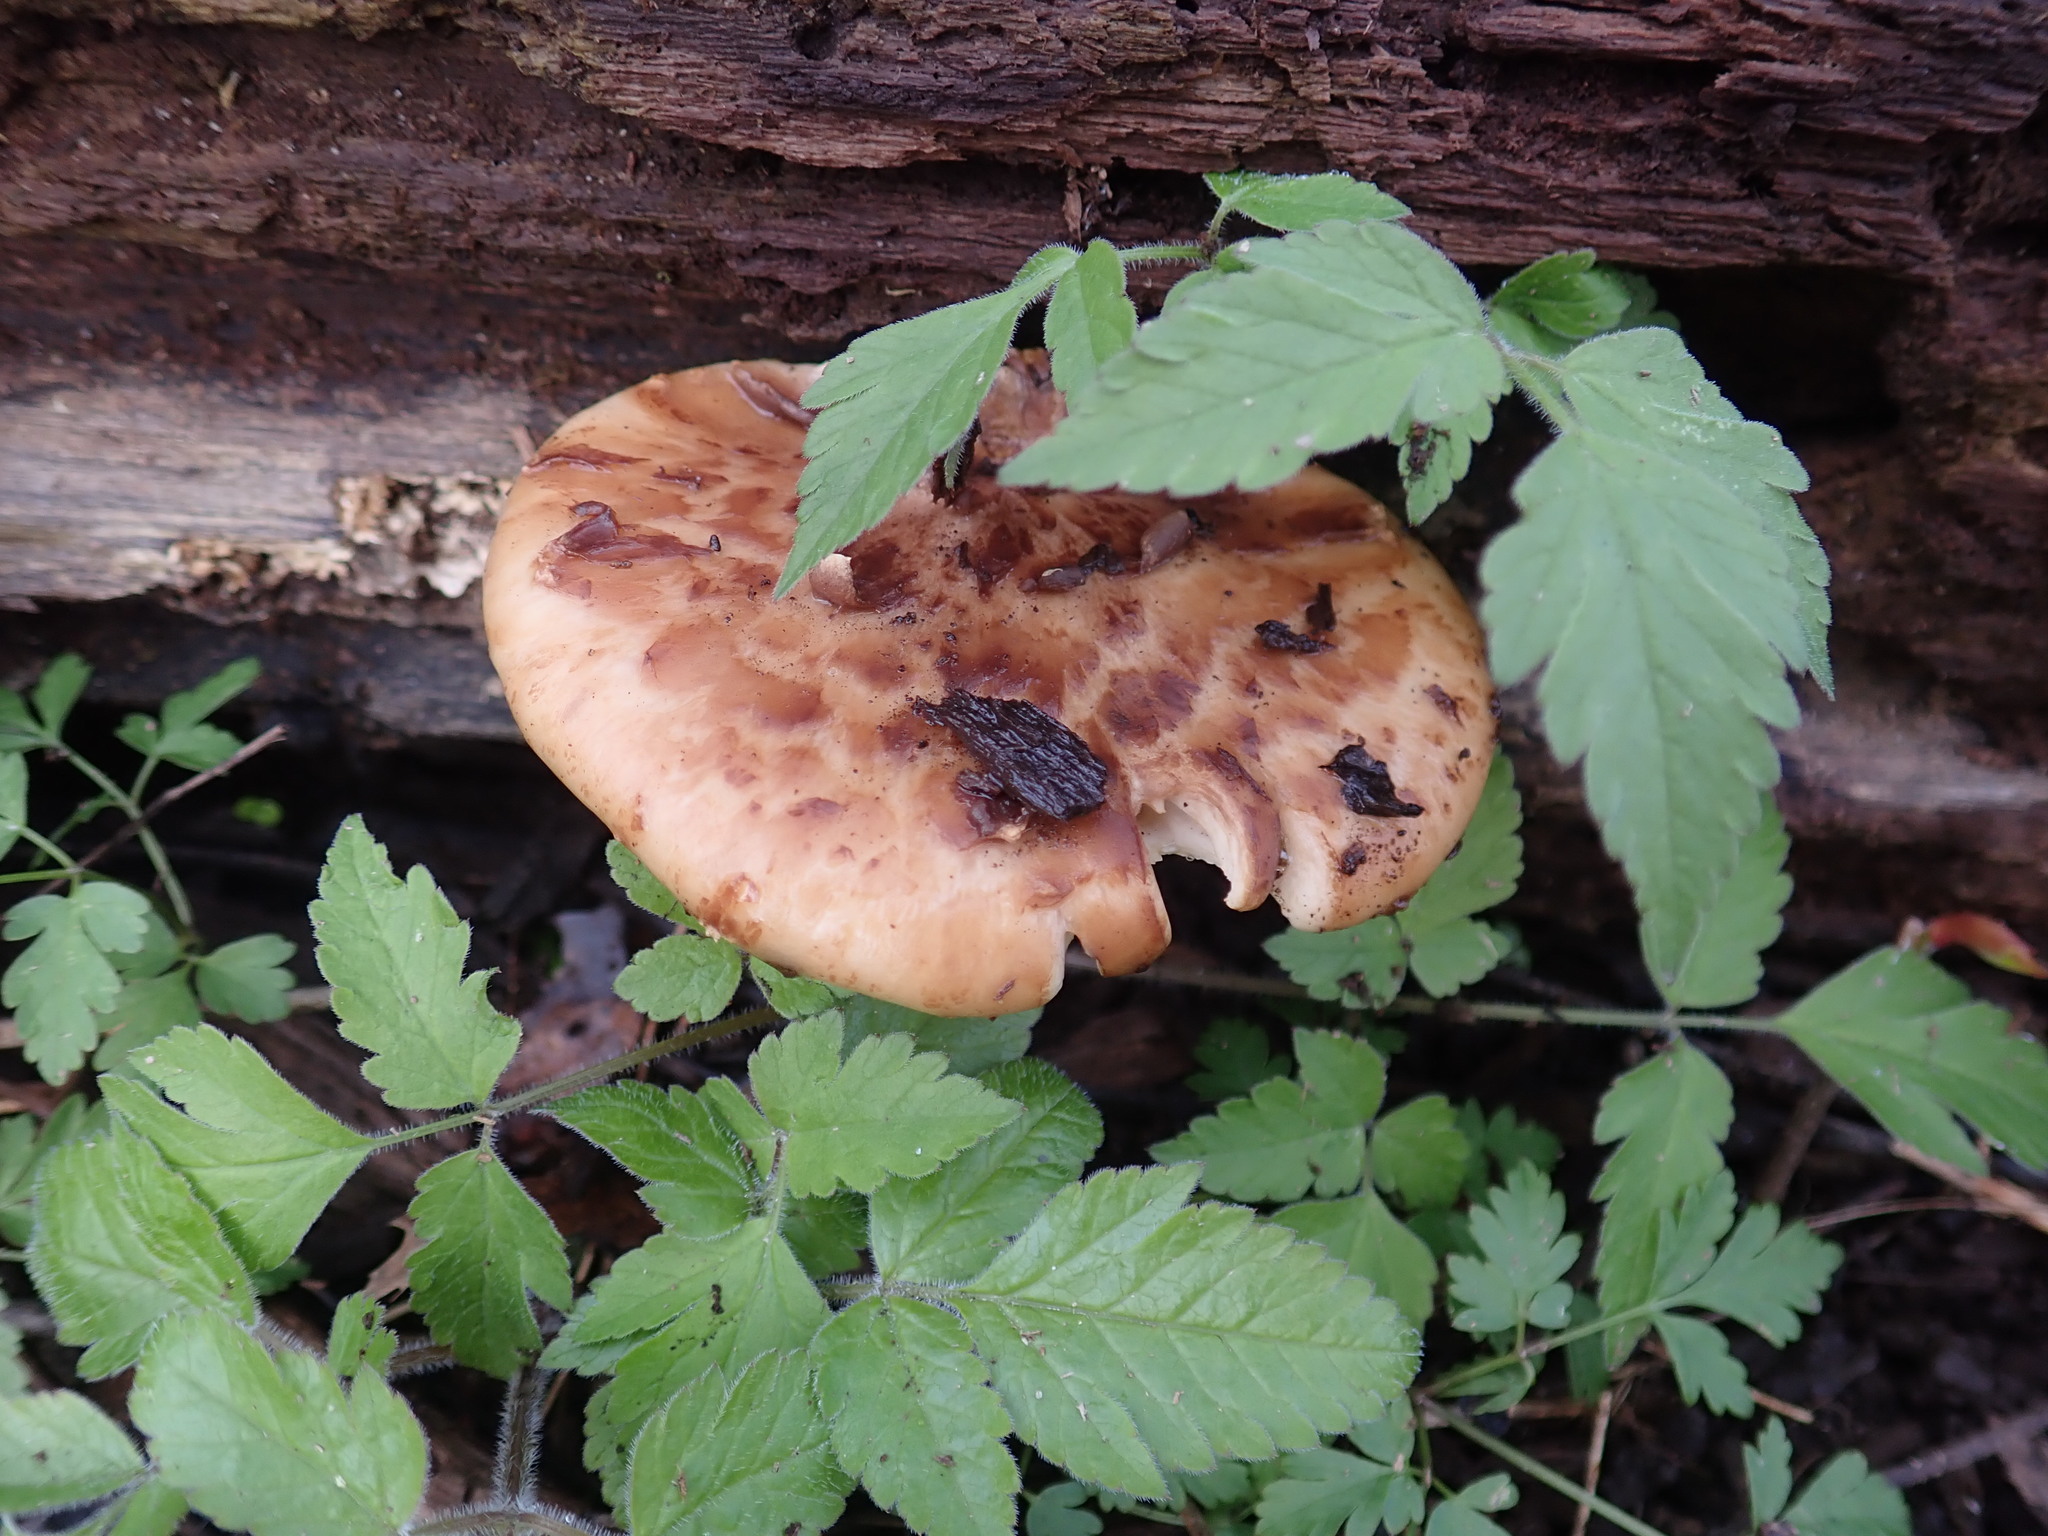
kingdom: Fungi
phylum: Basidiomycota
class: Agaricomycetes
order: Polyporales
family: Polyporaceae
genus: Cerioporus
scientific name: Cerioporus squamosus
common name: Dryad's saddle
